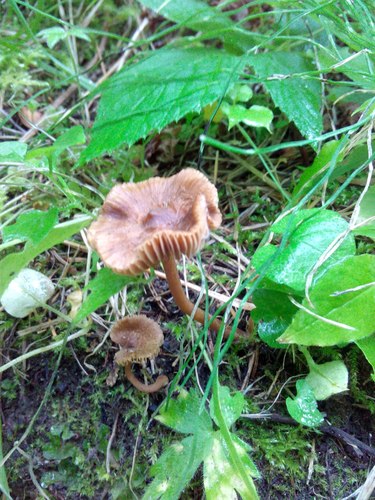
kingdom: Fungi
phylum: Basidiomycota
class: Agaricomycetes
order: Agaricales
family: Agaricaceae
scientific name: Agaricaceae
